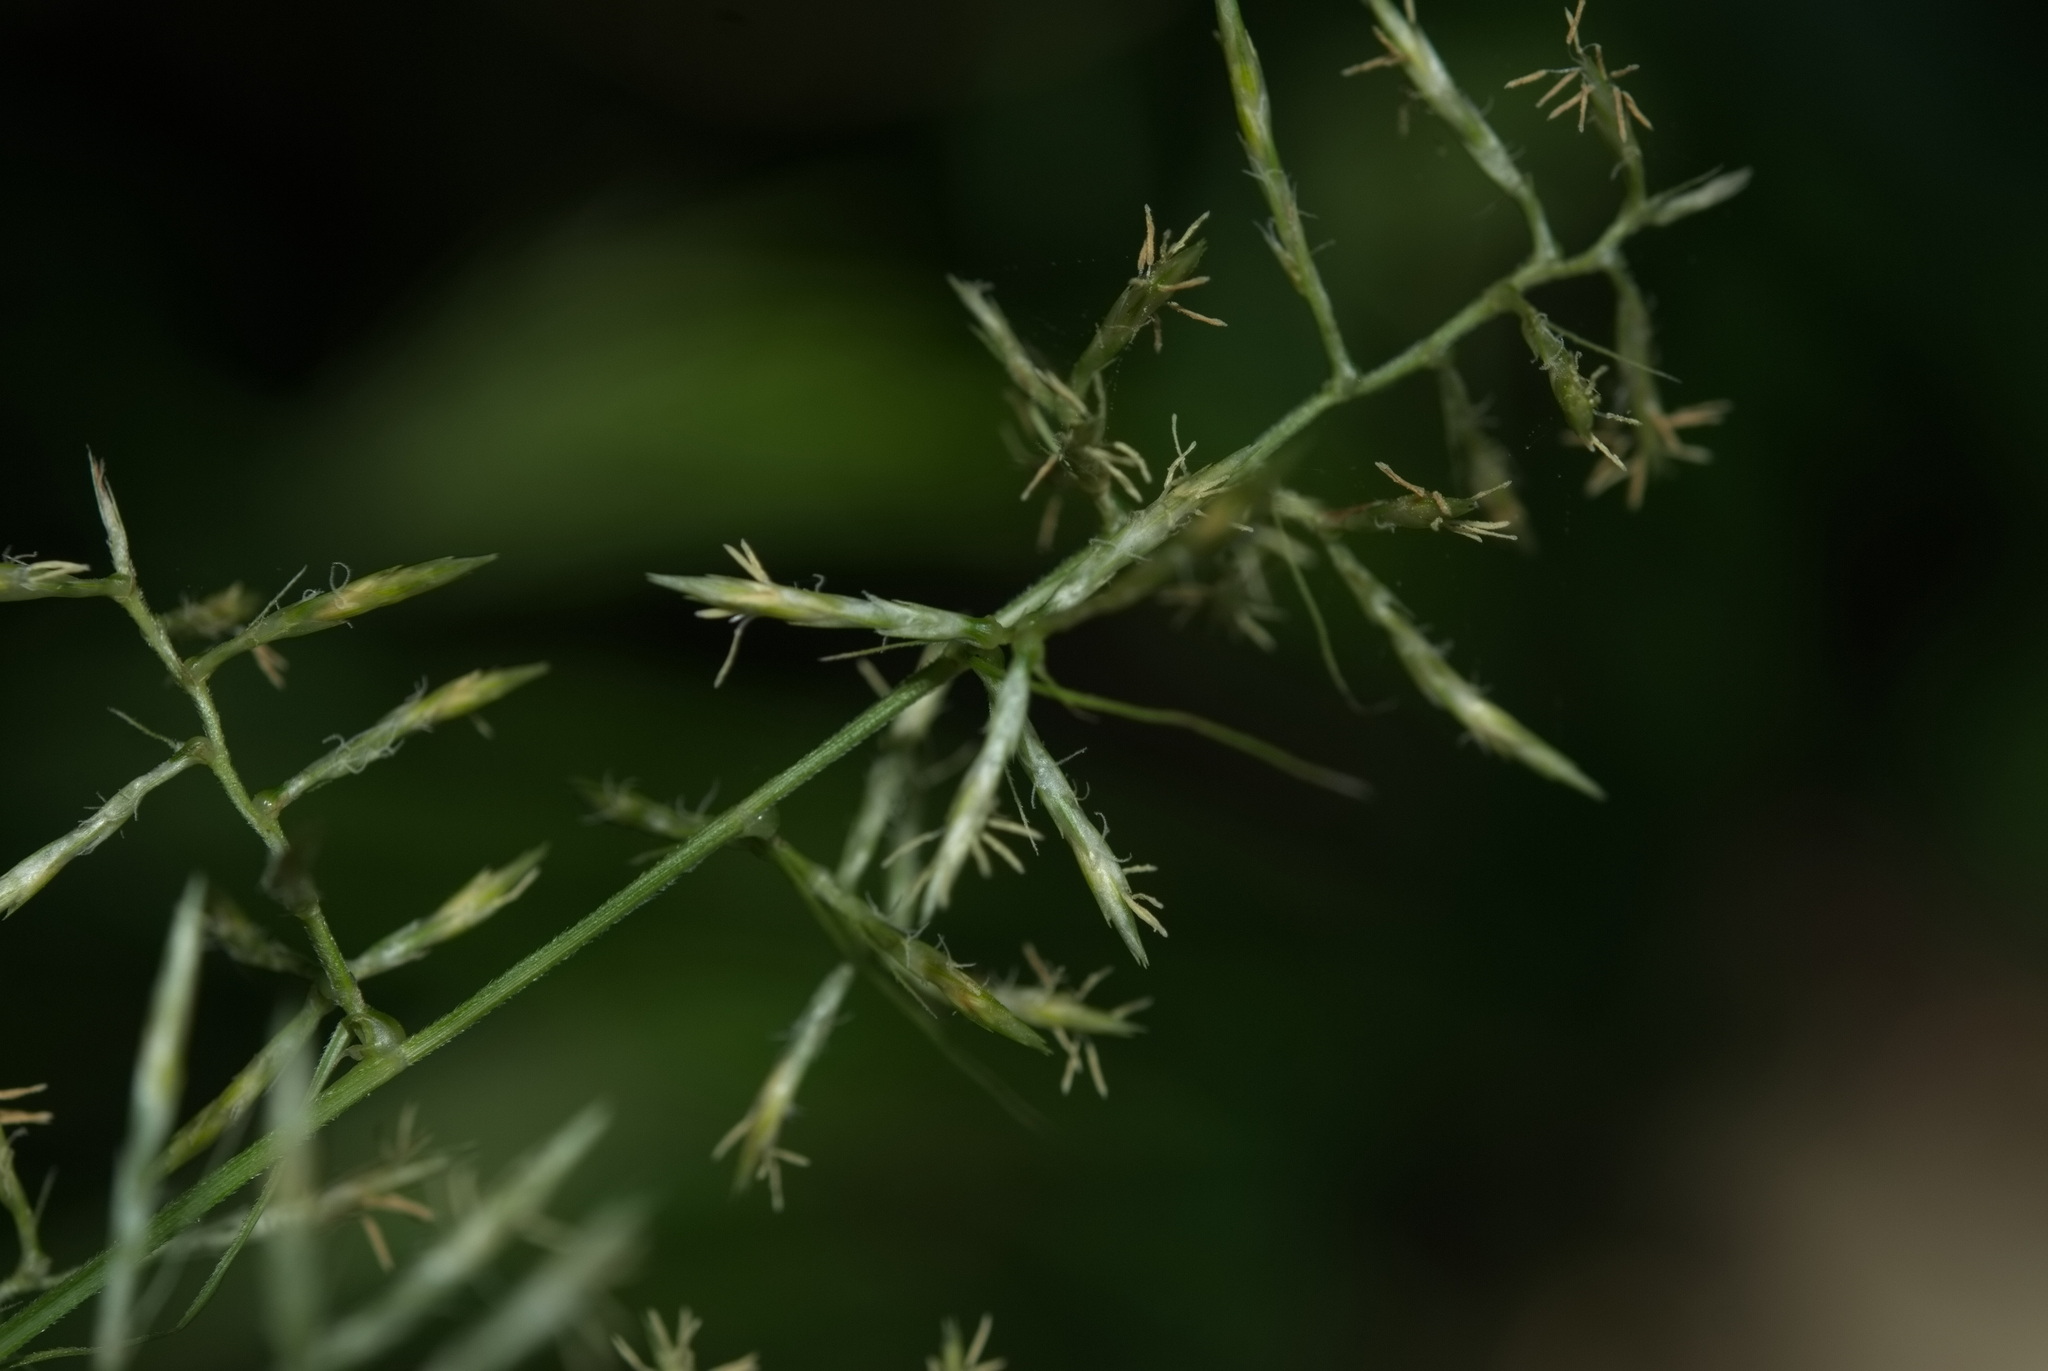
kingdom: Plantae
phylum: Tracheophyta
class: Liliopsida
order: Poales
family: Cyperaceae
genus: Carex
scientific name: Carex cruciata
